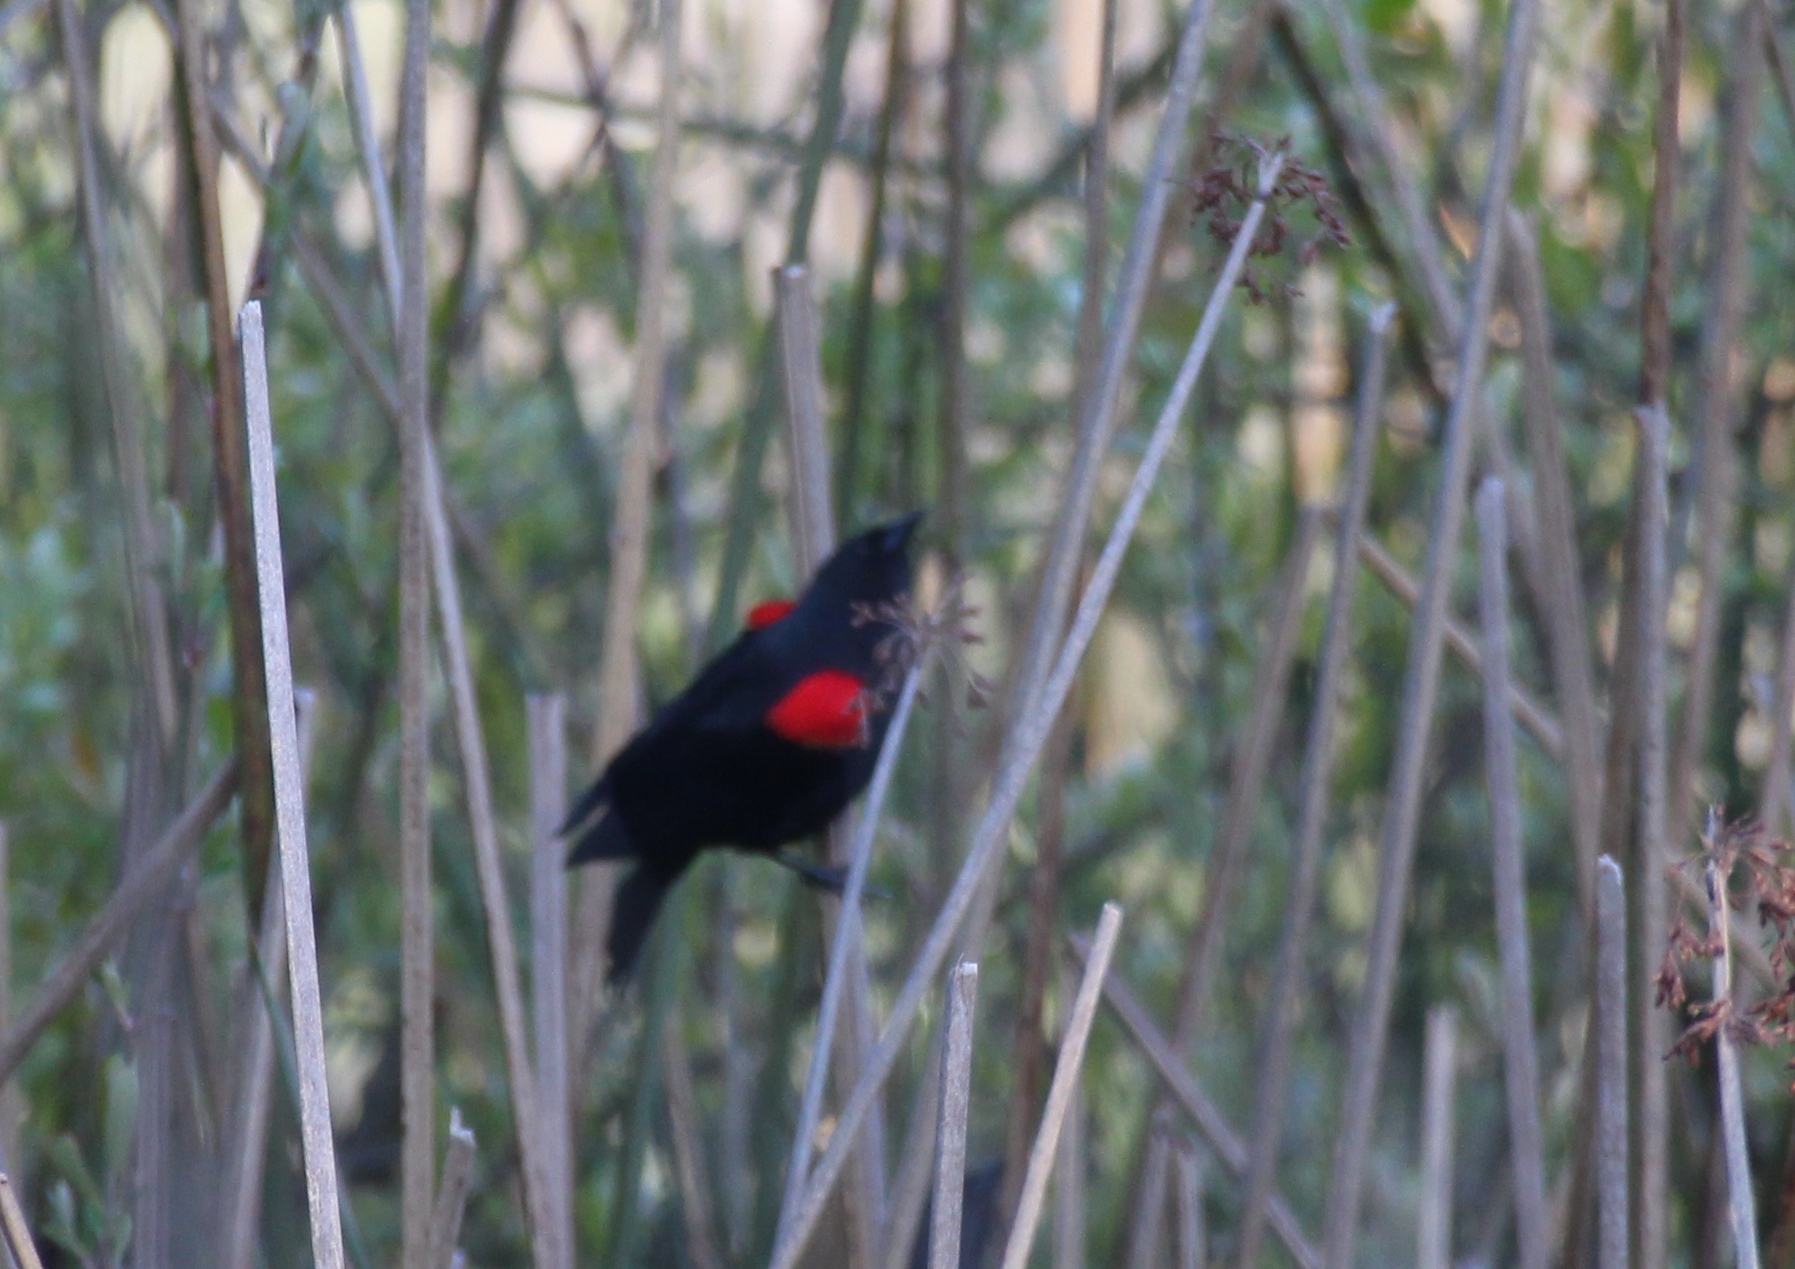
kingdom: Animalia
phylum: Chordata
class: Aves
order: Passeriformes
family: Icteridae
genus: Agelaius
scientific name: Agelaius phoeniceus
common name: Red-winged blackbird
